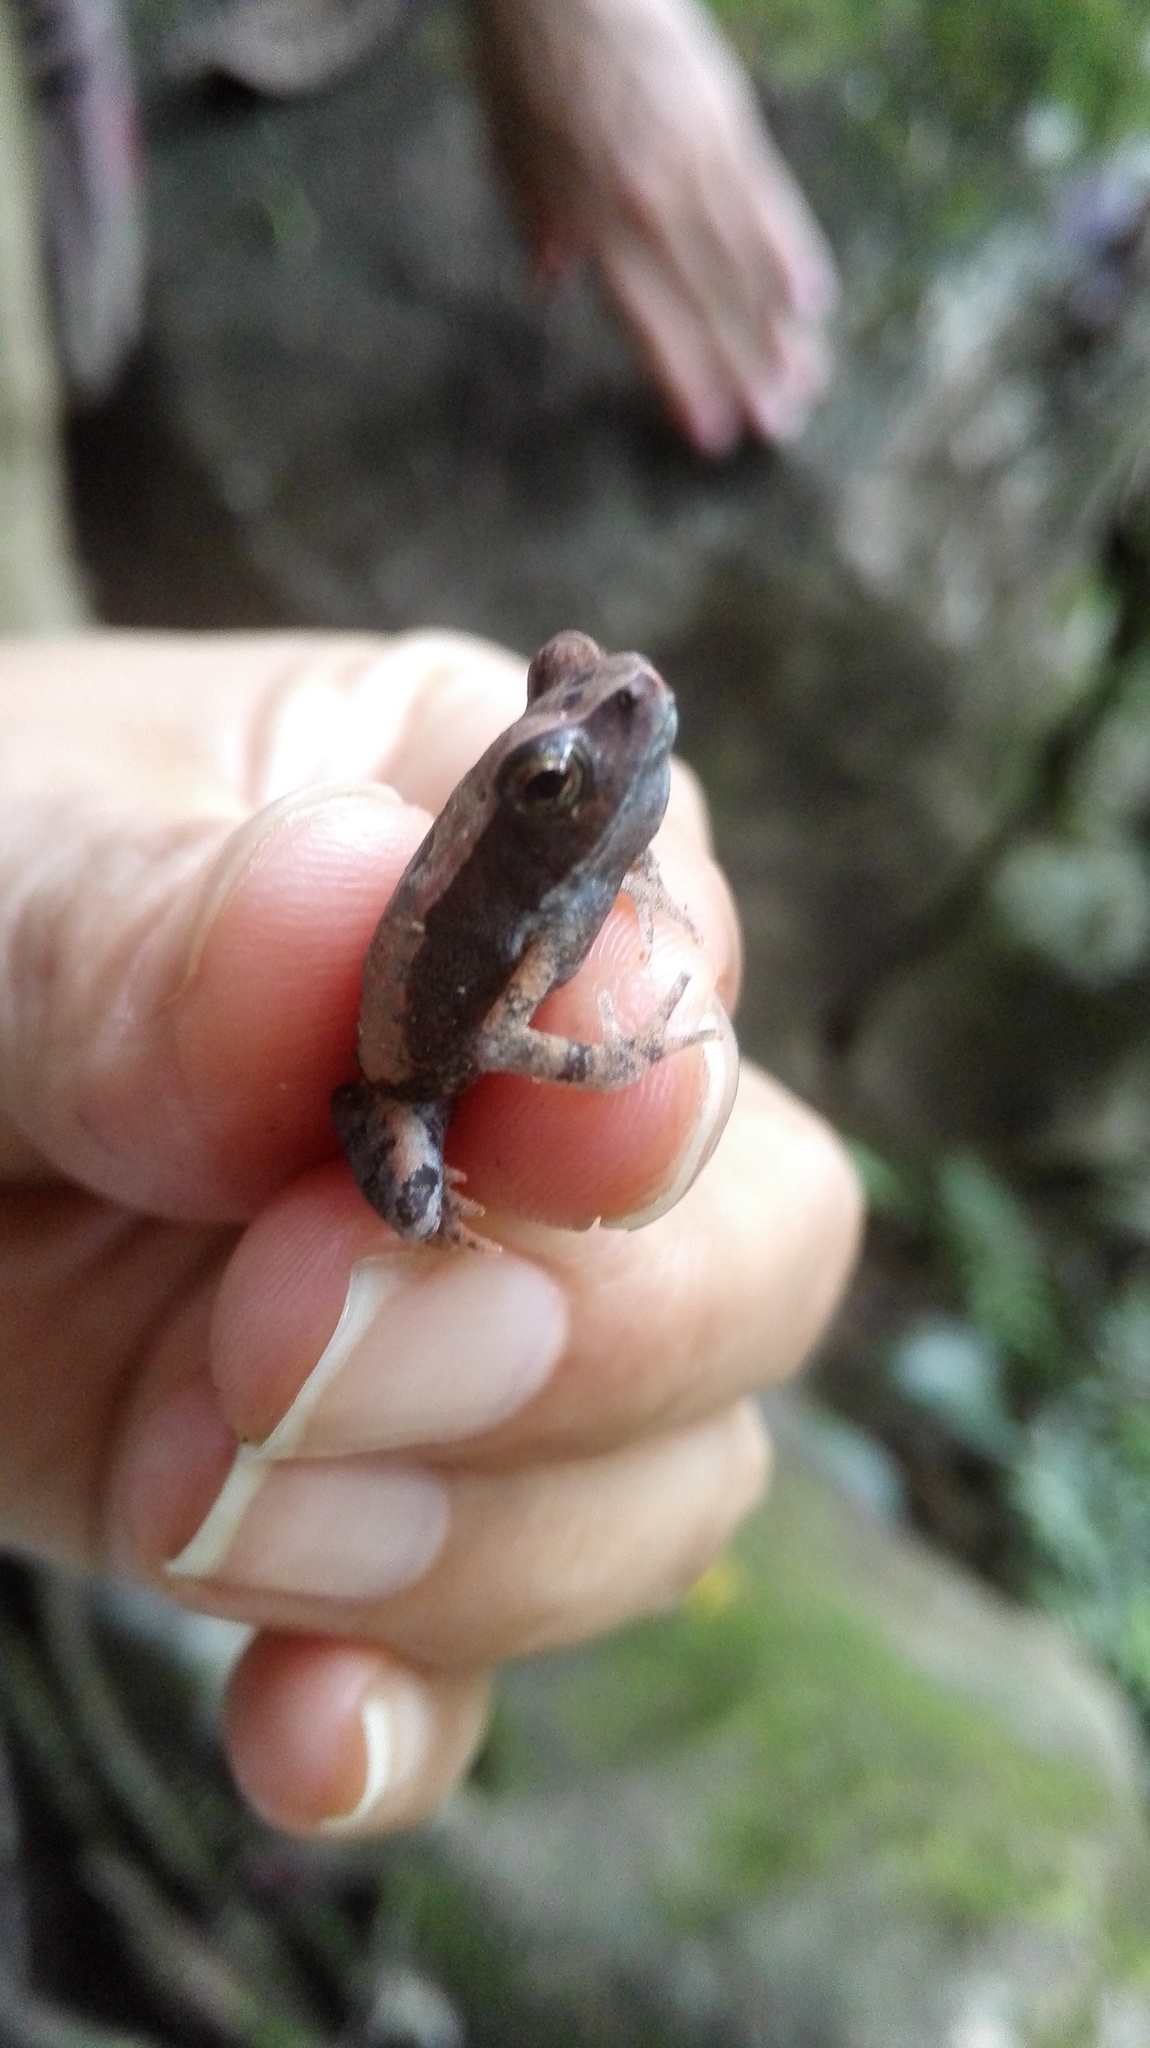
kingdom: Animalia
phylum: Chordata
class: Amphibia
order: Anura
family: Bufonidae
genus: Rhaebo
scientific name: Rhaebo haematiticus
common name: Truando toad
